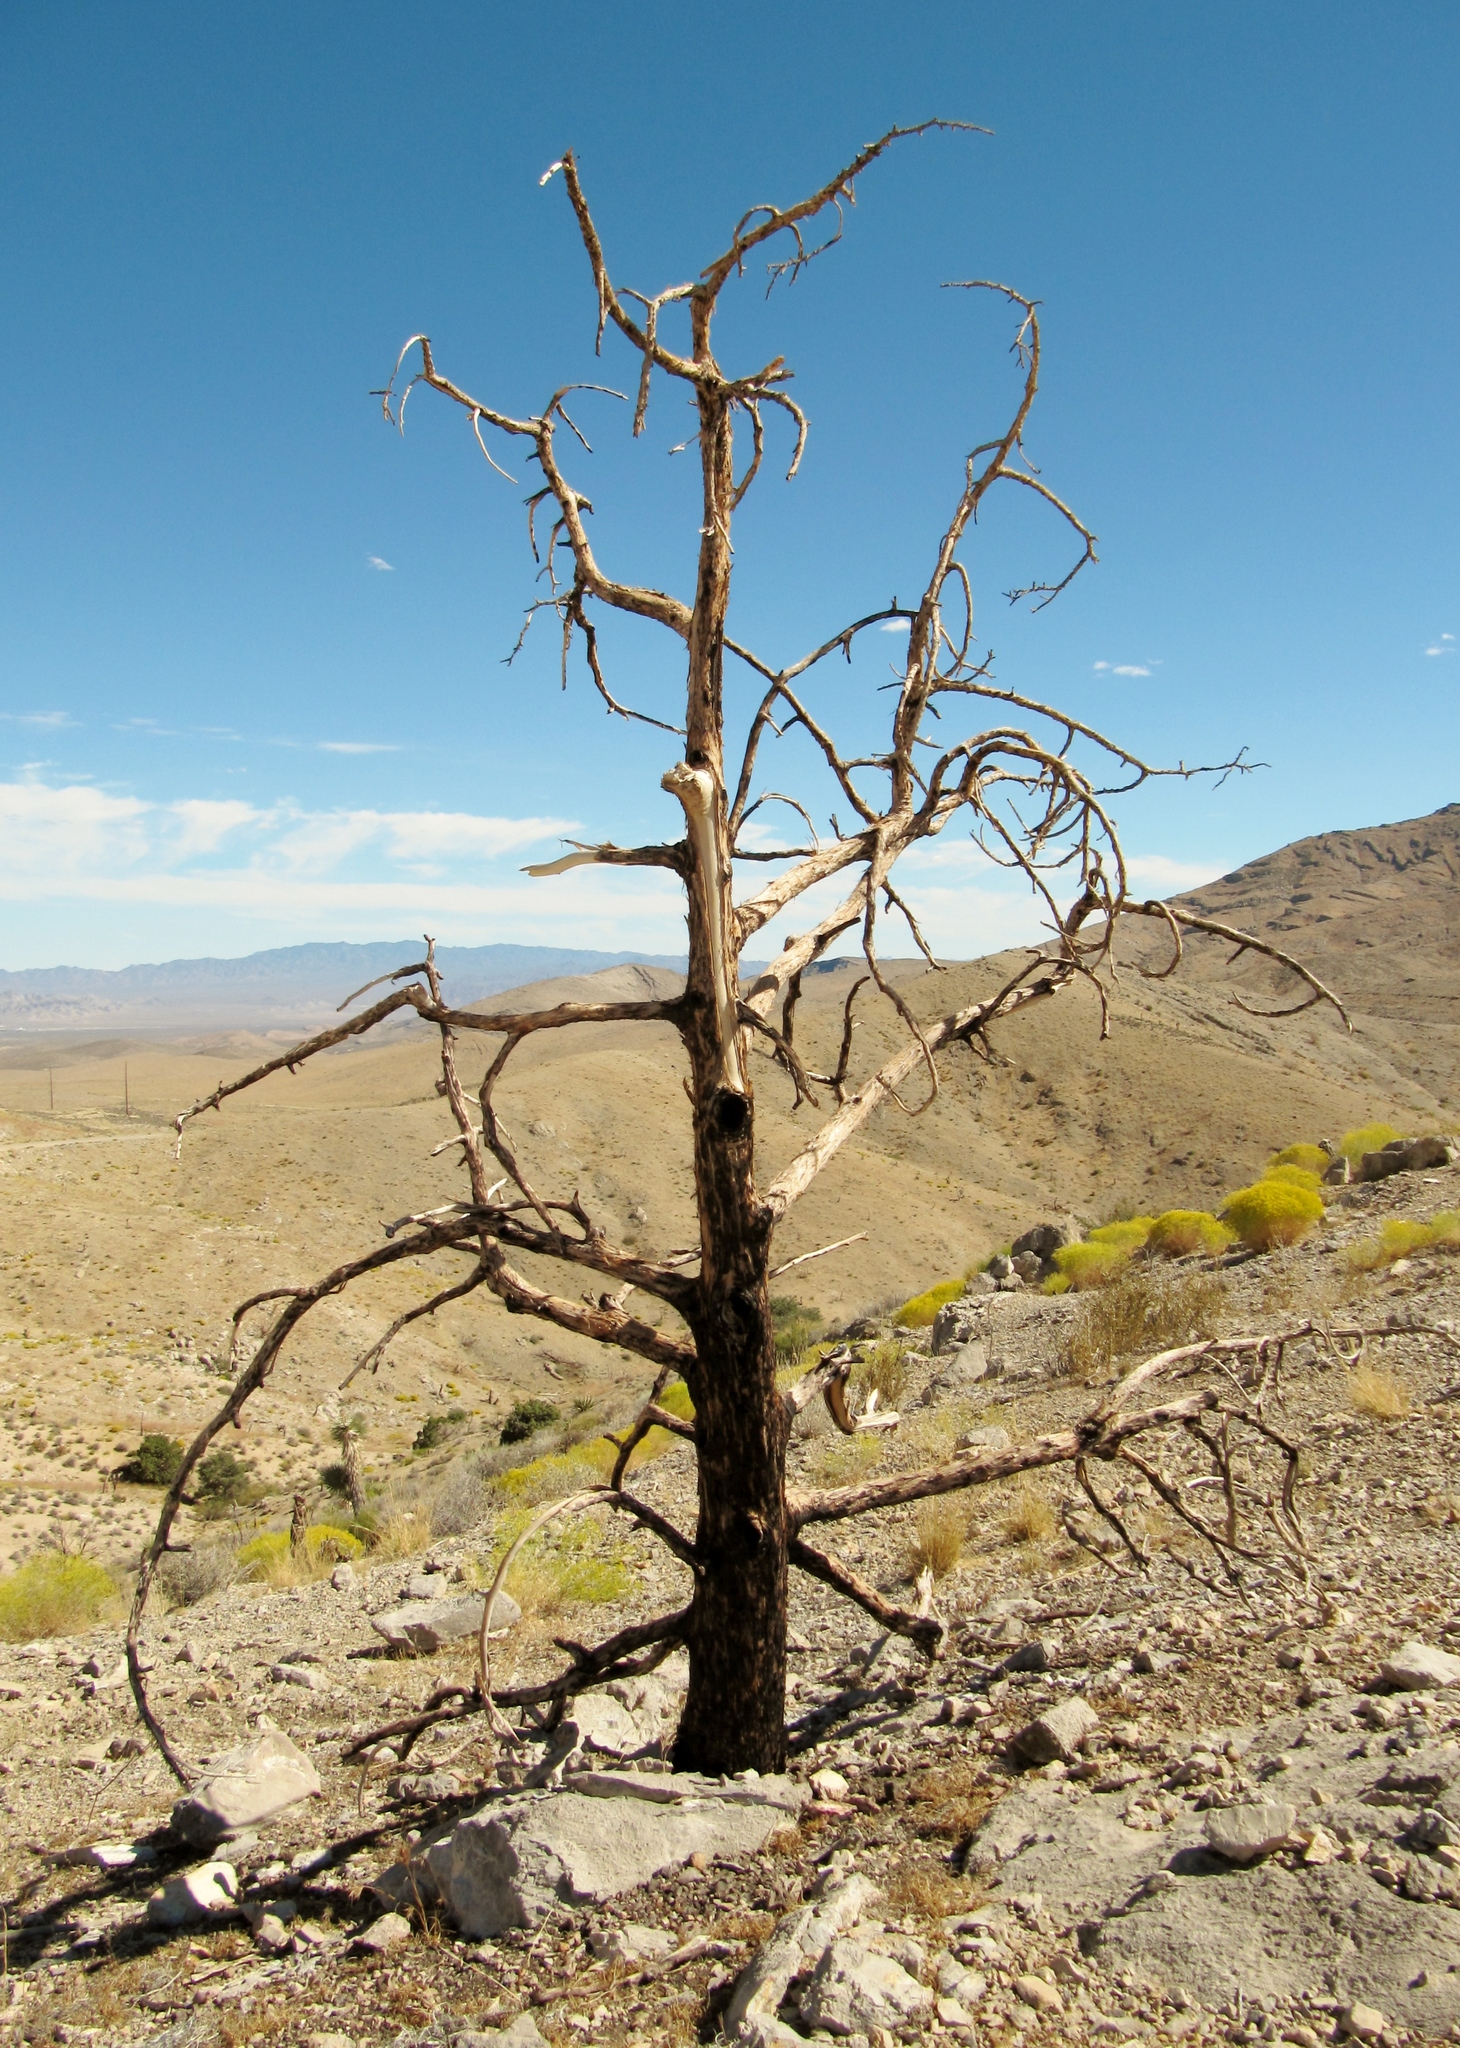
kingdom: Plantae
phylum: Tracheophyta
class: Pinopsida
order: Pinales
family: Pinaceae
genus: Pinus
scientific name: Pinus monophylla
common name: One-leaved nut pine
